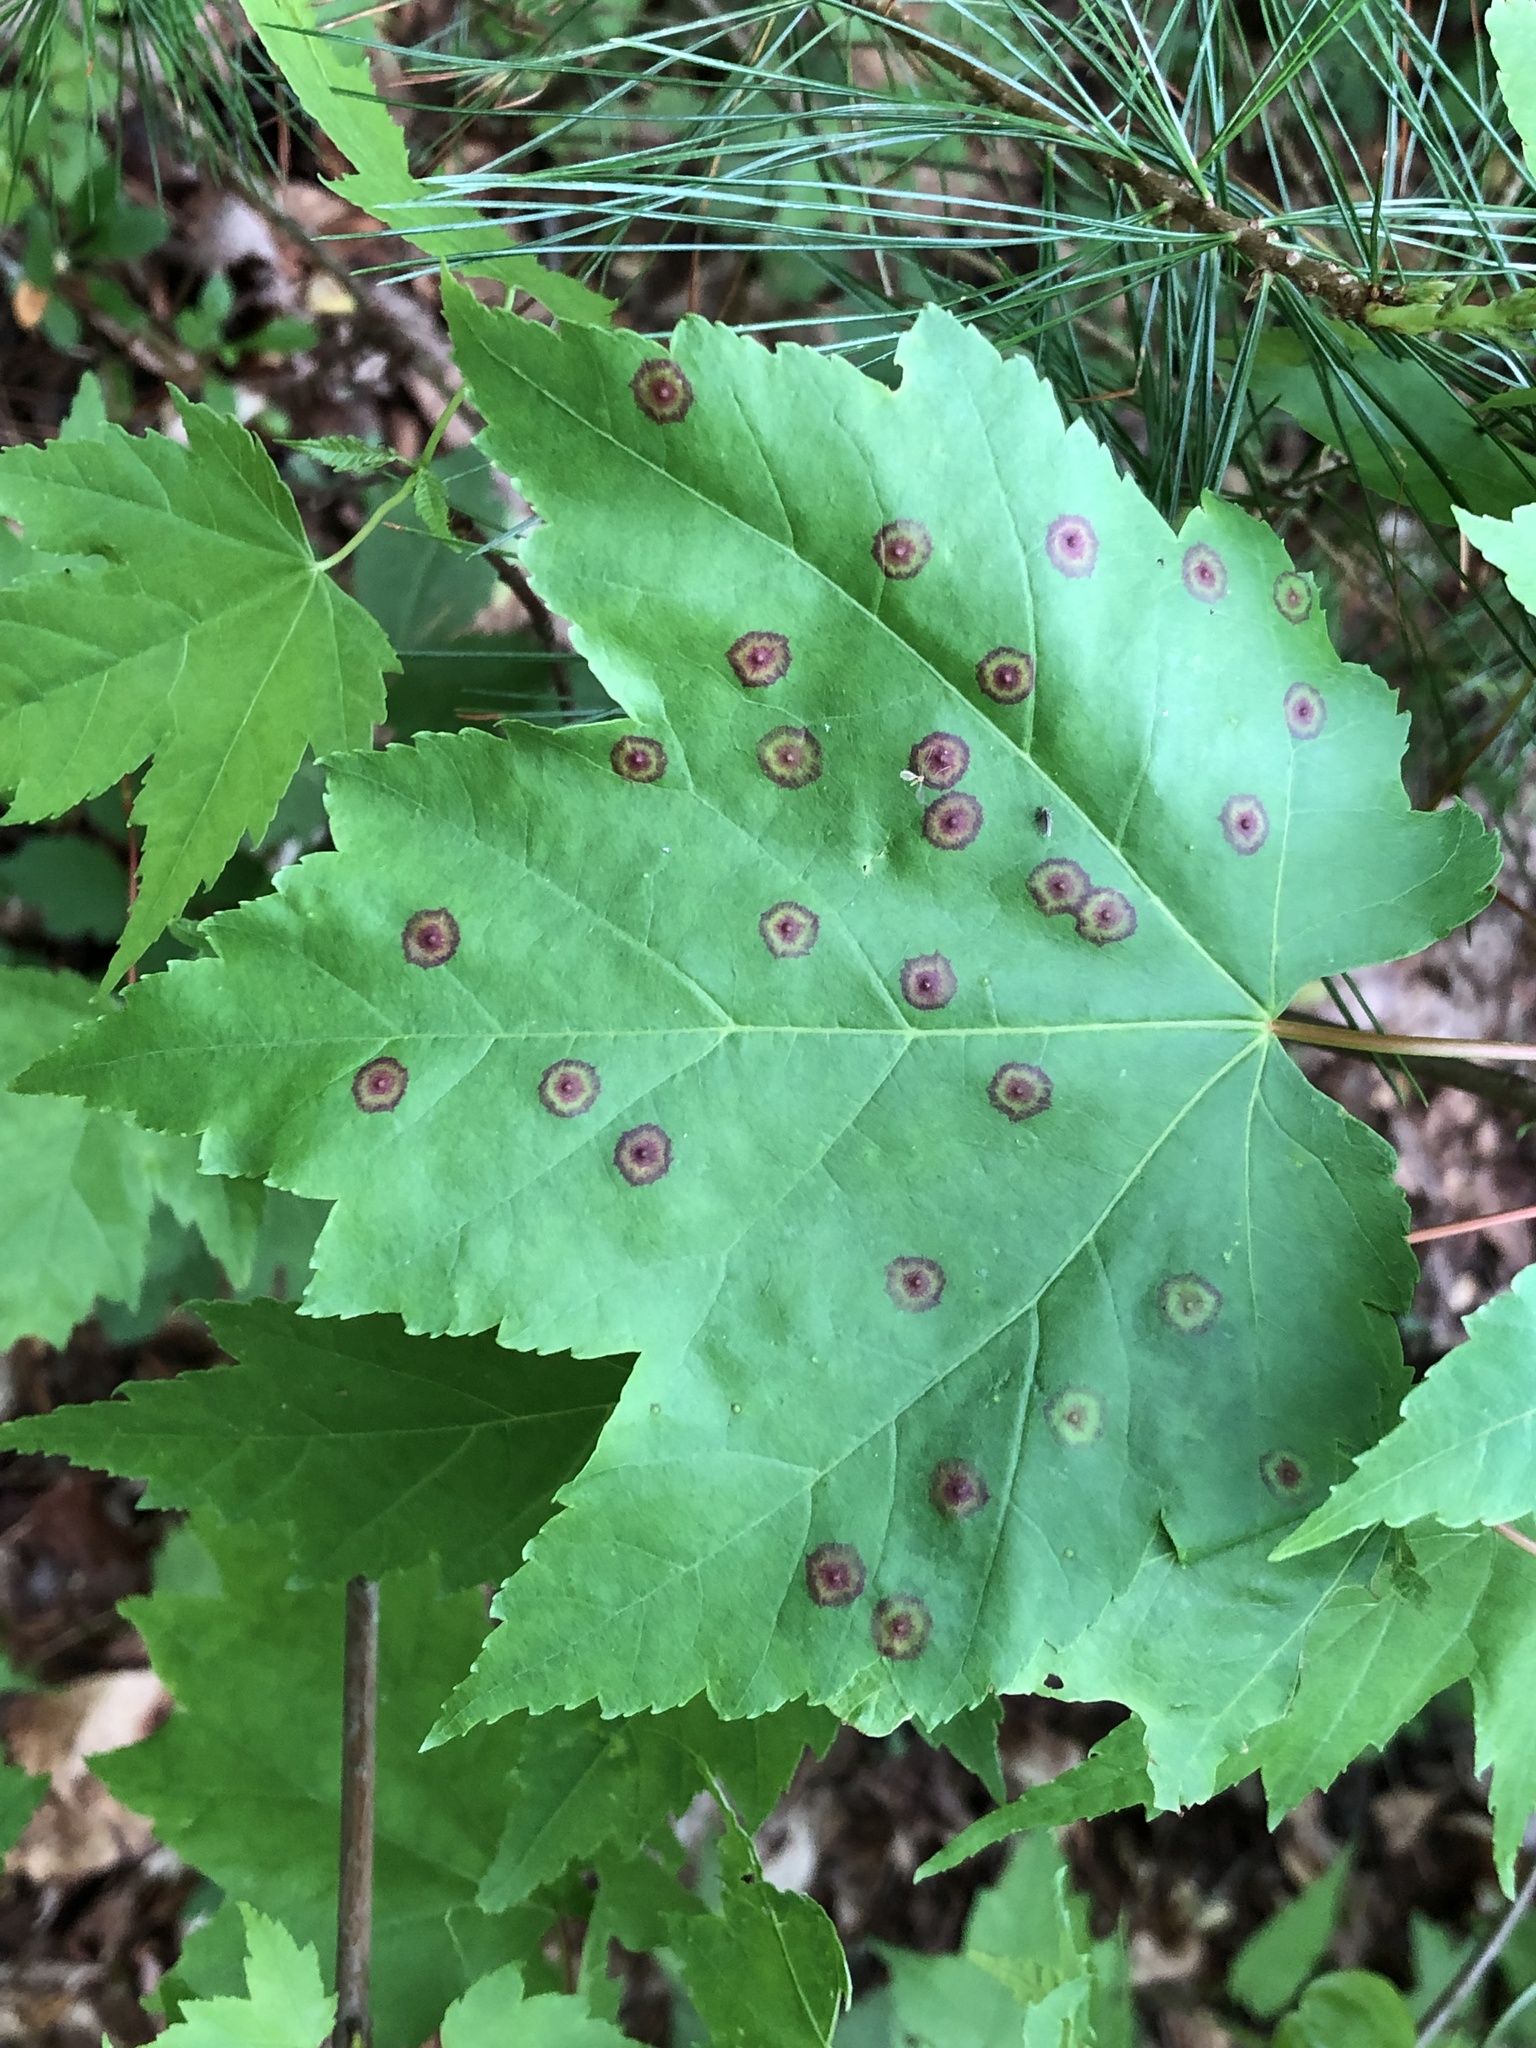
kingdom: Animalia
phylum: Arthropoda
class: Insecta
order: Diptera
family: Cecidomyiidae
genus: Acericecis
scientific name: Acericecis ocellaris
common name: Ocellate gall midge
